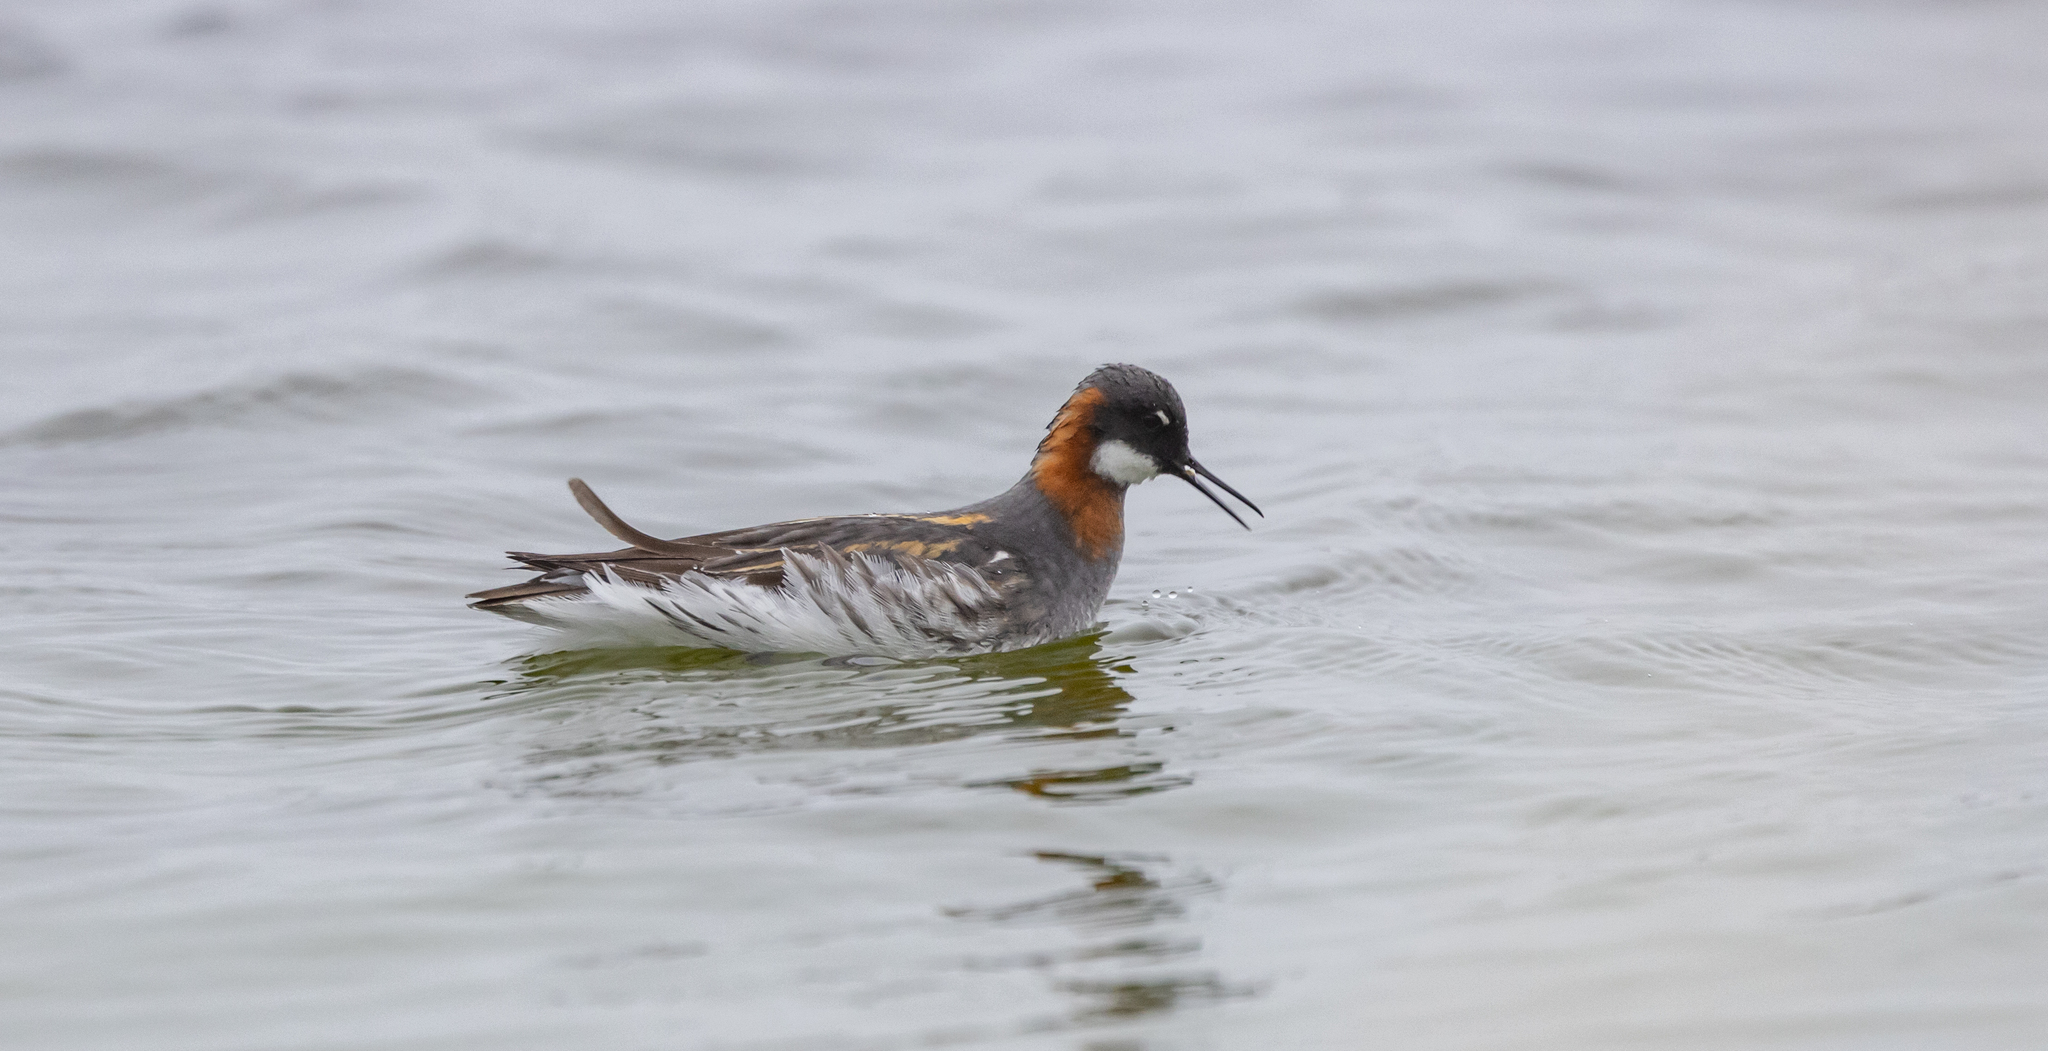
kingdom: Animalia
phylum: Chordata
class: Aves
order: Charadriiformes
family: Scolopacidae
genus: Phalaropus
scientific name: Phalaropus lobatus
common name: Red-necked phalarope
